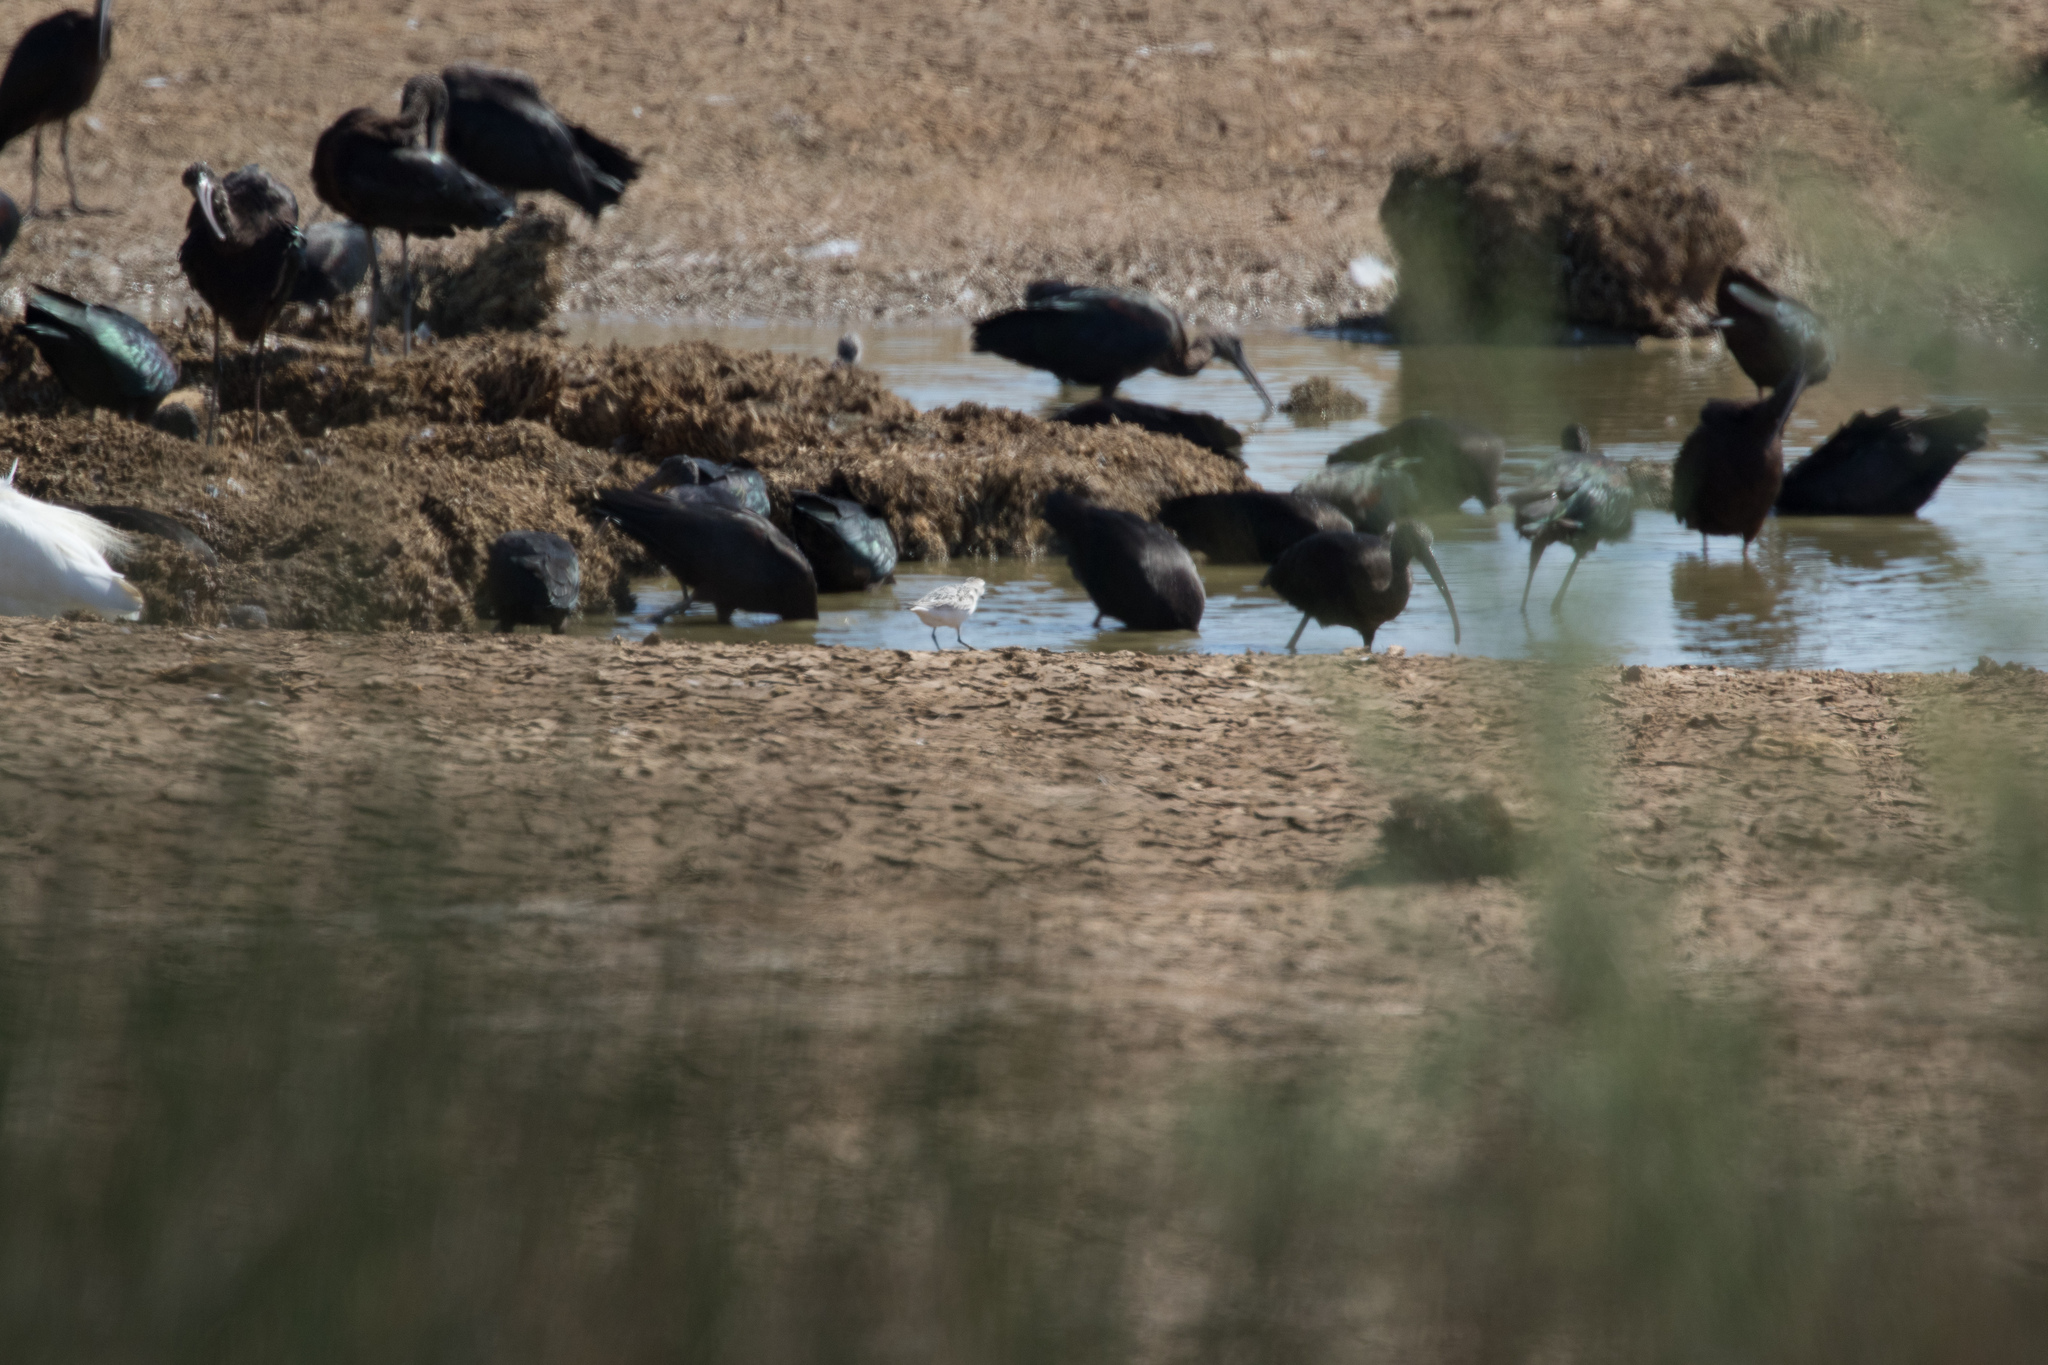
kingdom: Animalia
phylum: Chordata
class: Aves
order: Charadriiformes
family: Scolopacidae
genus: Calidris
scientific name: Calidris alba
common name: Sanderling
